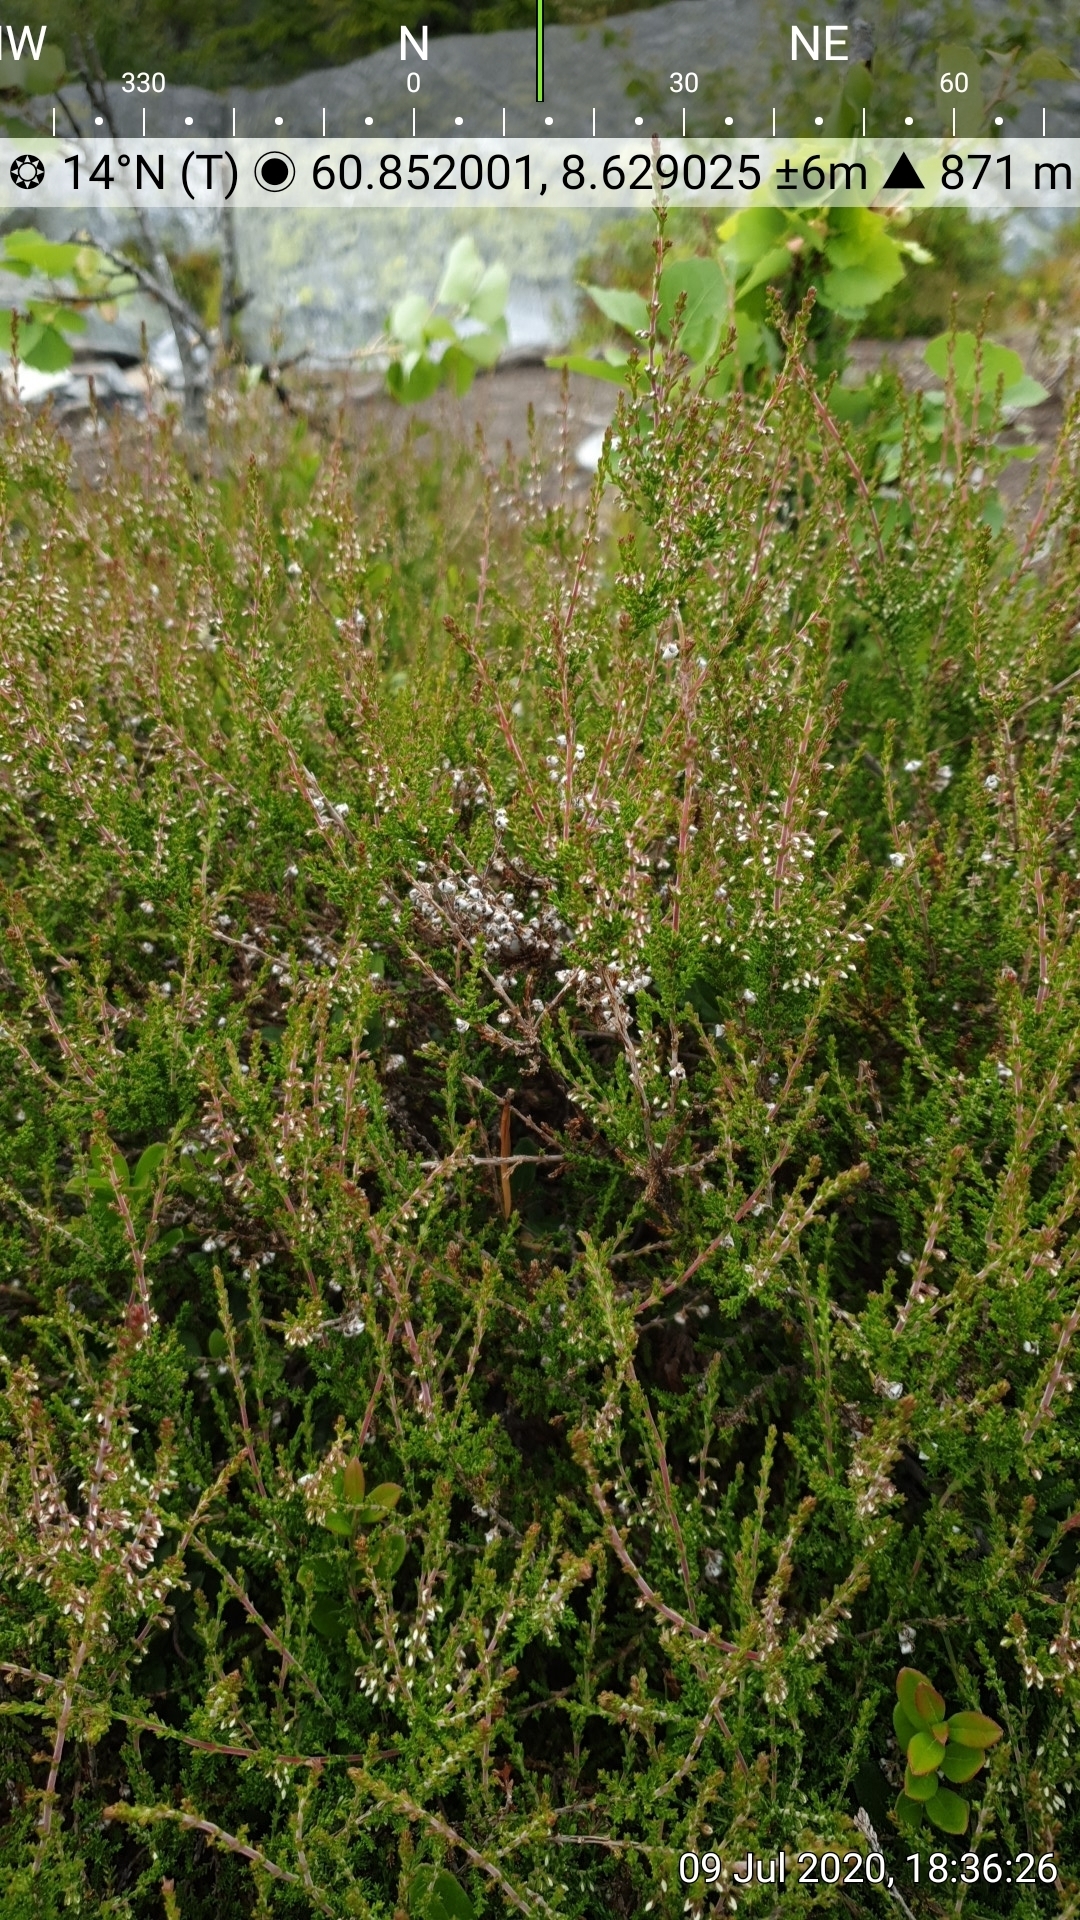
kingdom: Plantae
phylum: Tracheophyta
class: Magnoliopsida
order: Ericales
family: Ericaceae
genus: Calluna
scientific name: Calluna vulgaris
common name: Heather
